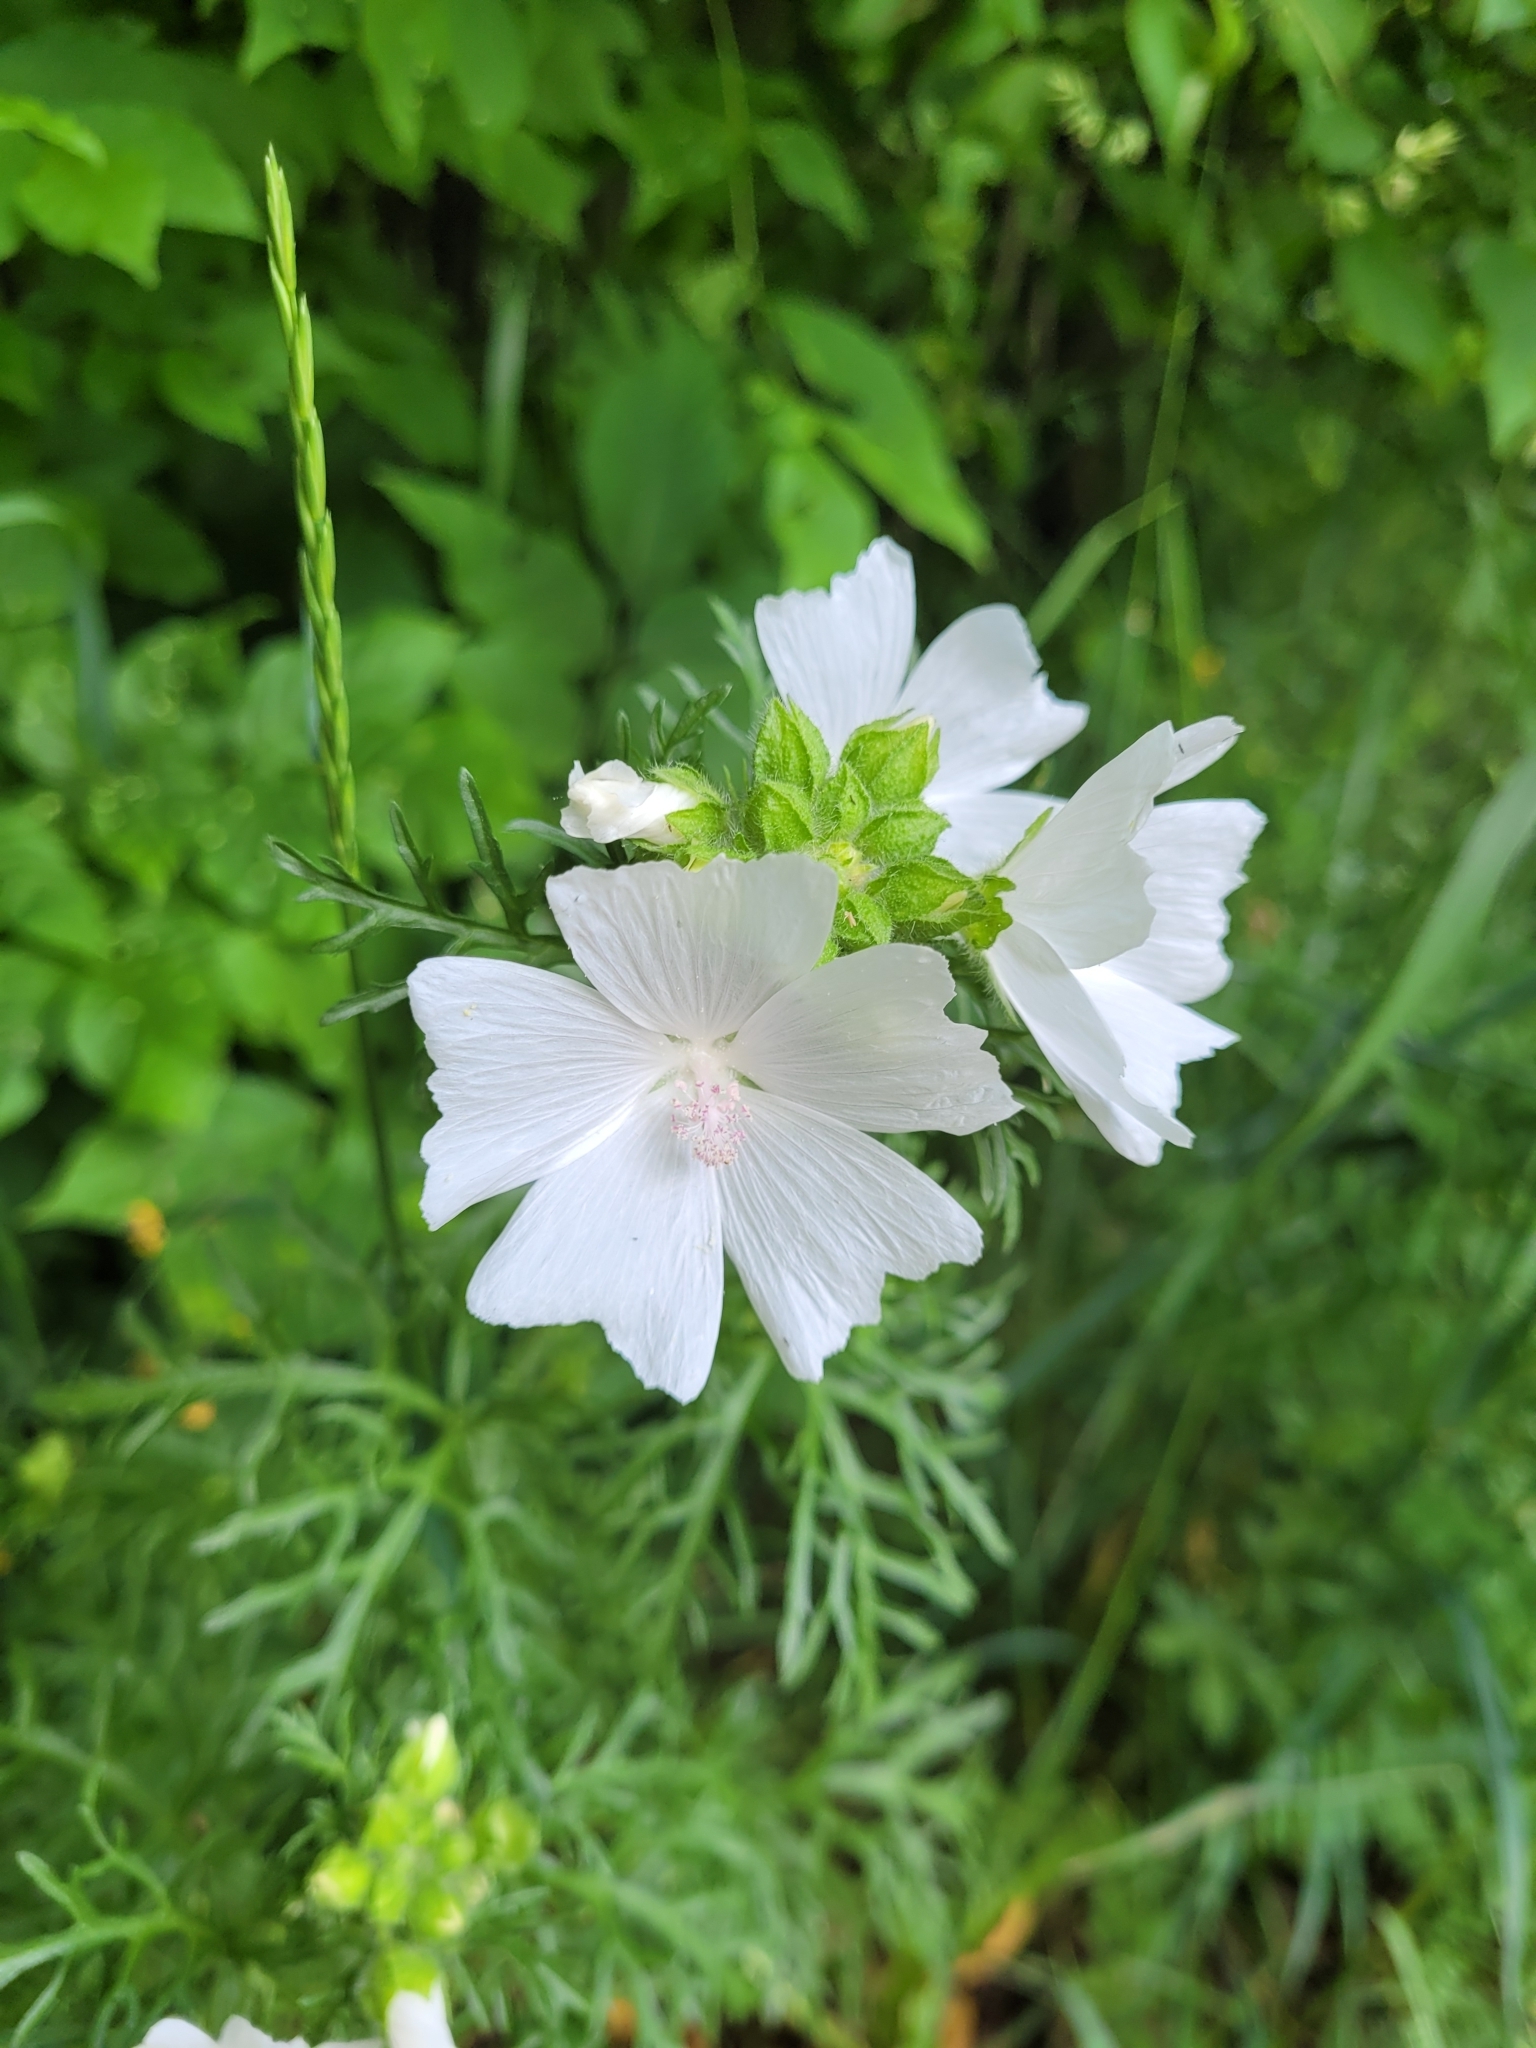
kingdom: Plantae
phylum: Tracheophyta
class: Magnoliopsida
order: Malvales
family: Malvaceae
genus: Malva
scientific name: Malva moschata
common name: Musk mallow
